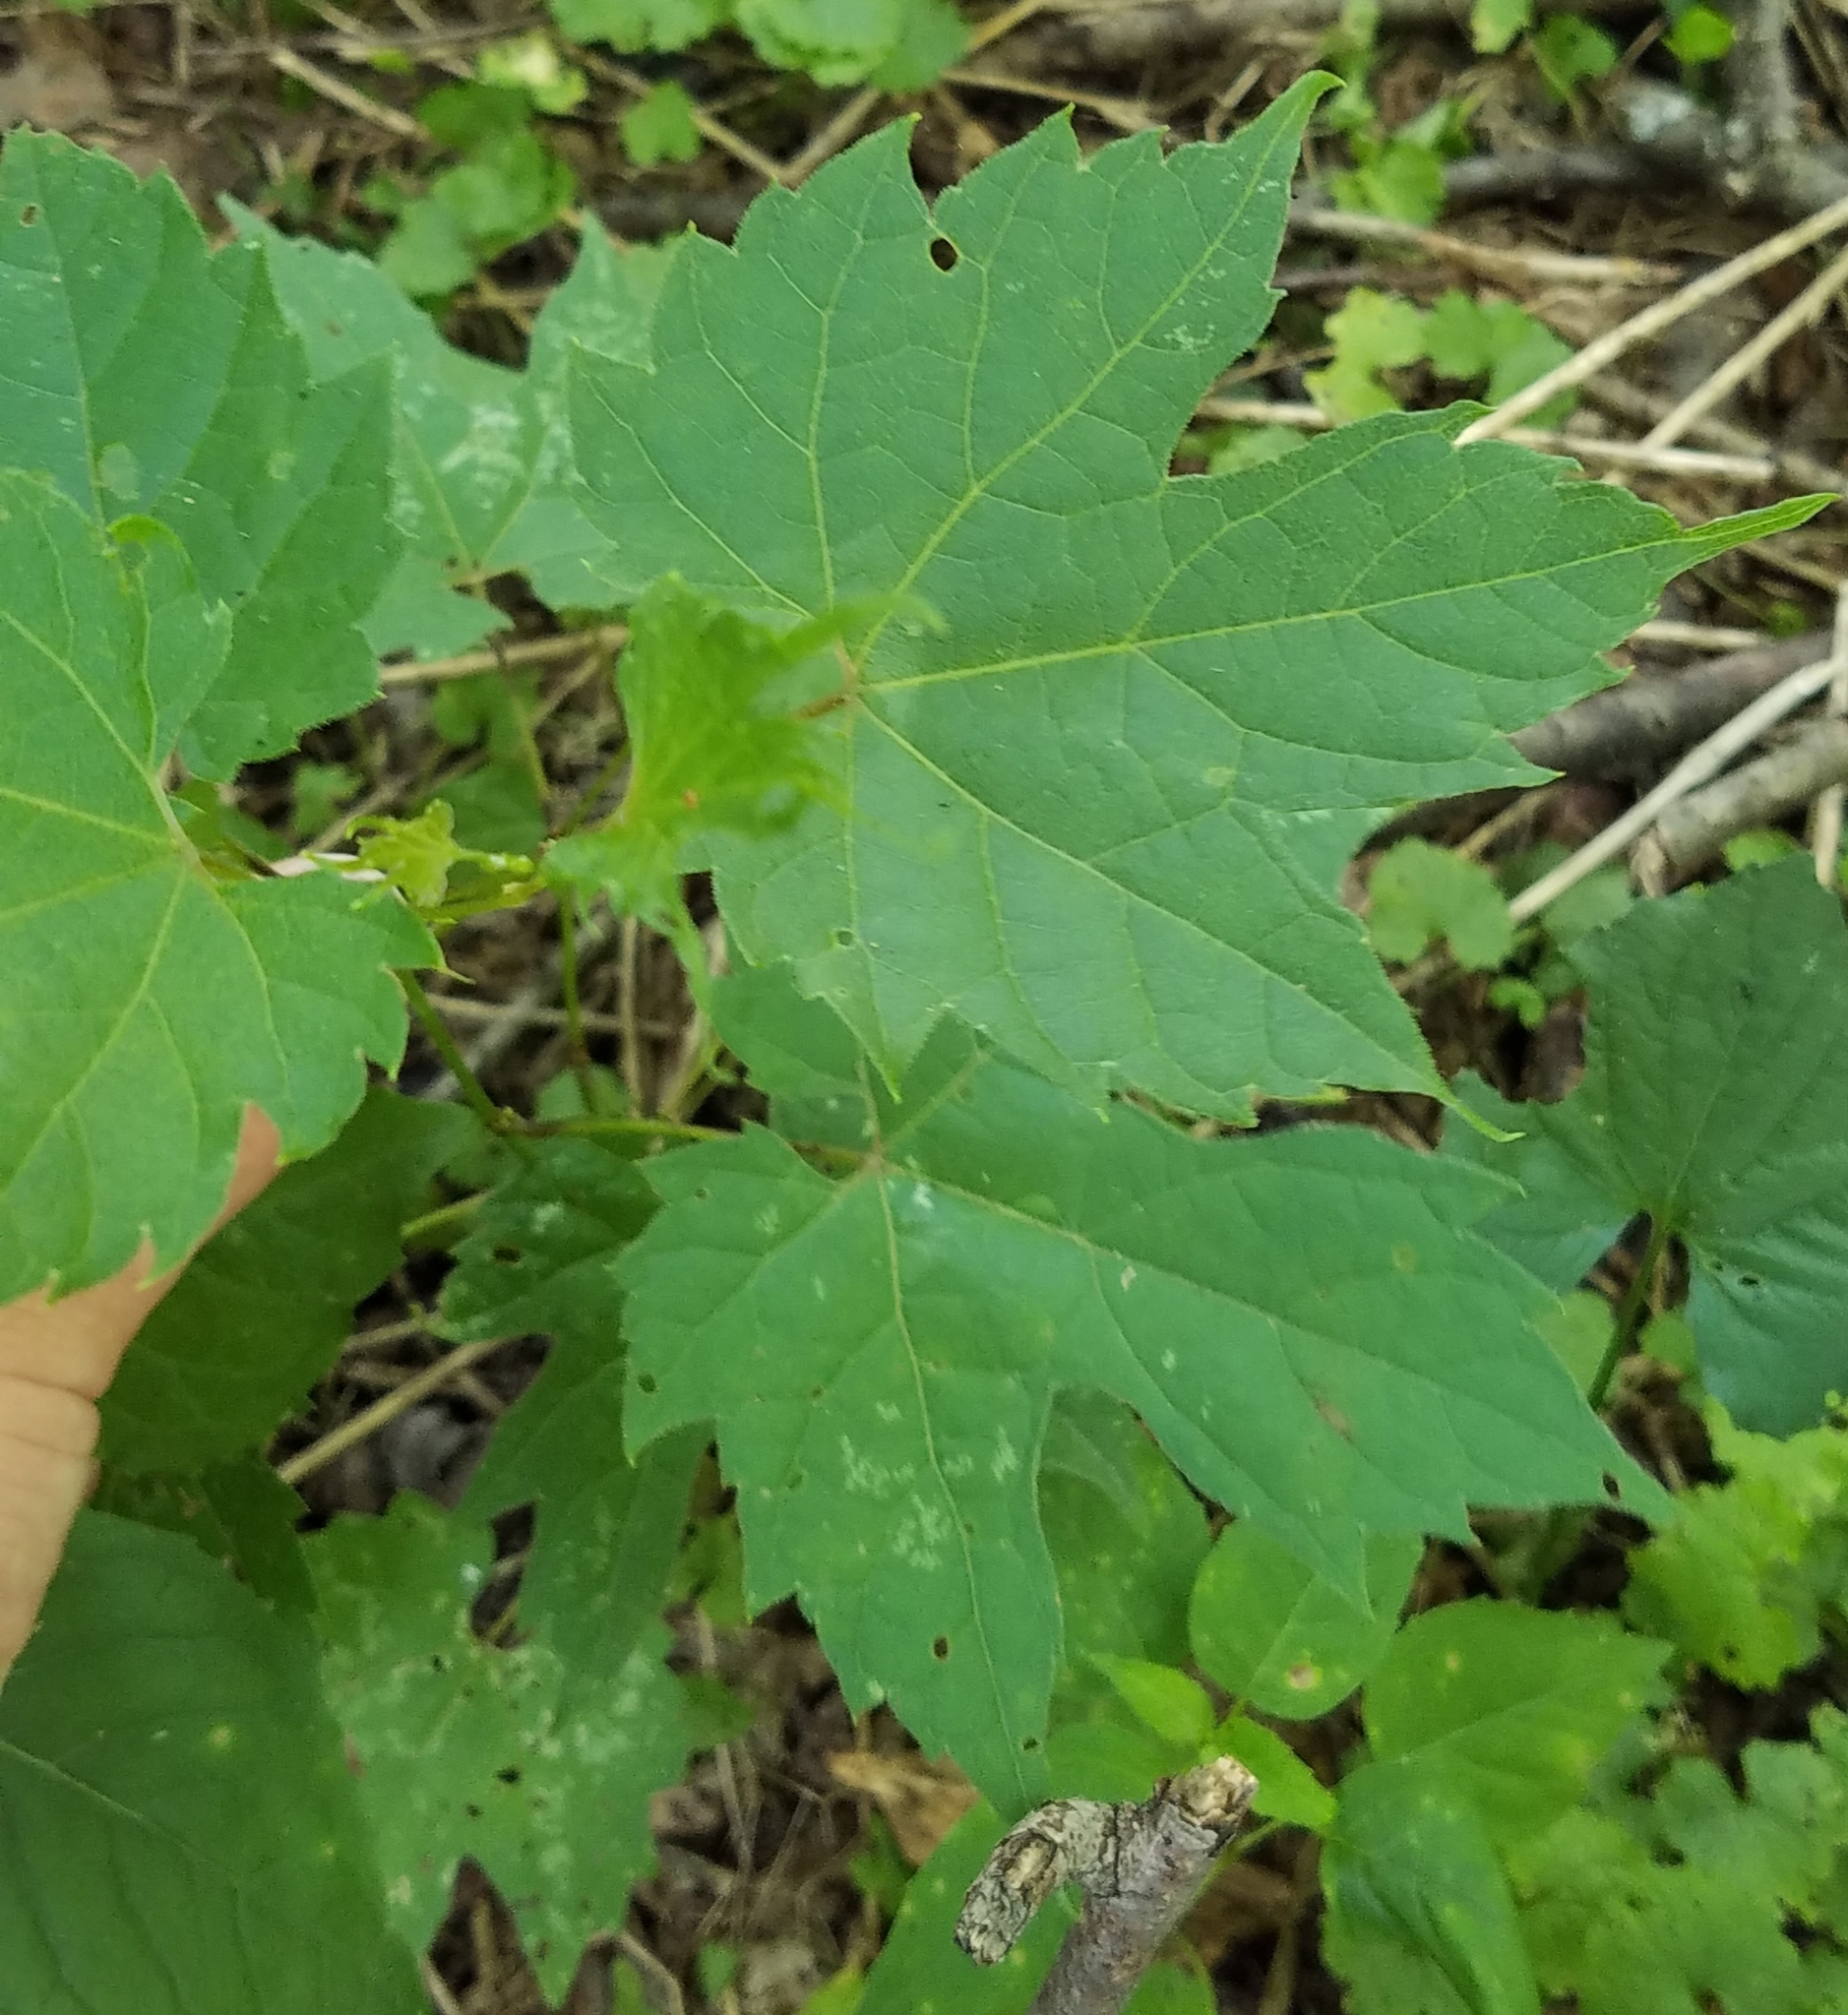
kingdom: Plantae
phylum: Tracheophyta
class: Magnoliopsida
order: Vitales
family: Vitaceae
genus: Vitis
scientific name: Vitis riparia
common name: Frost grape
